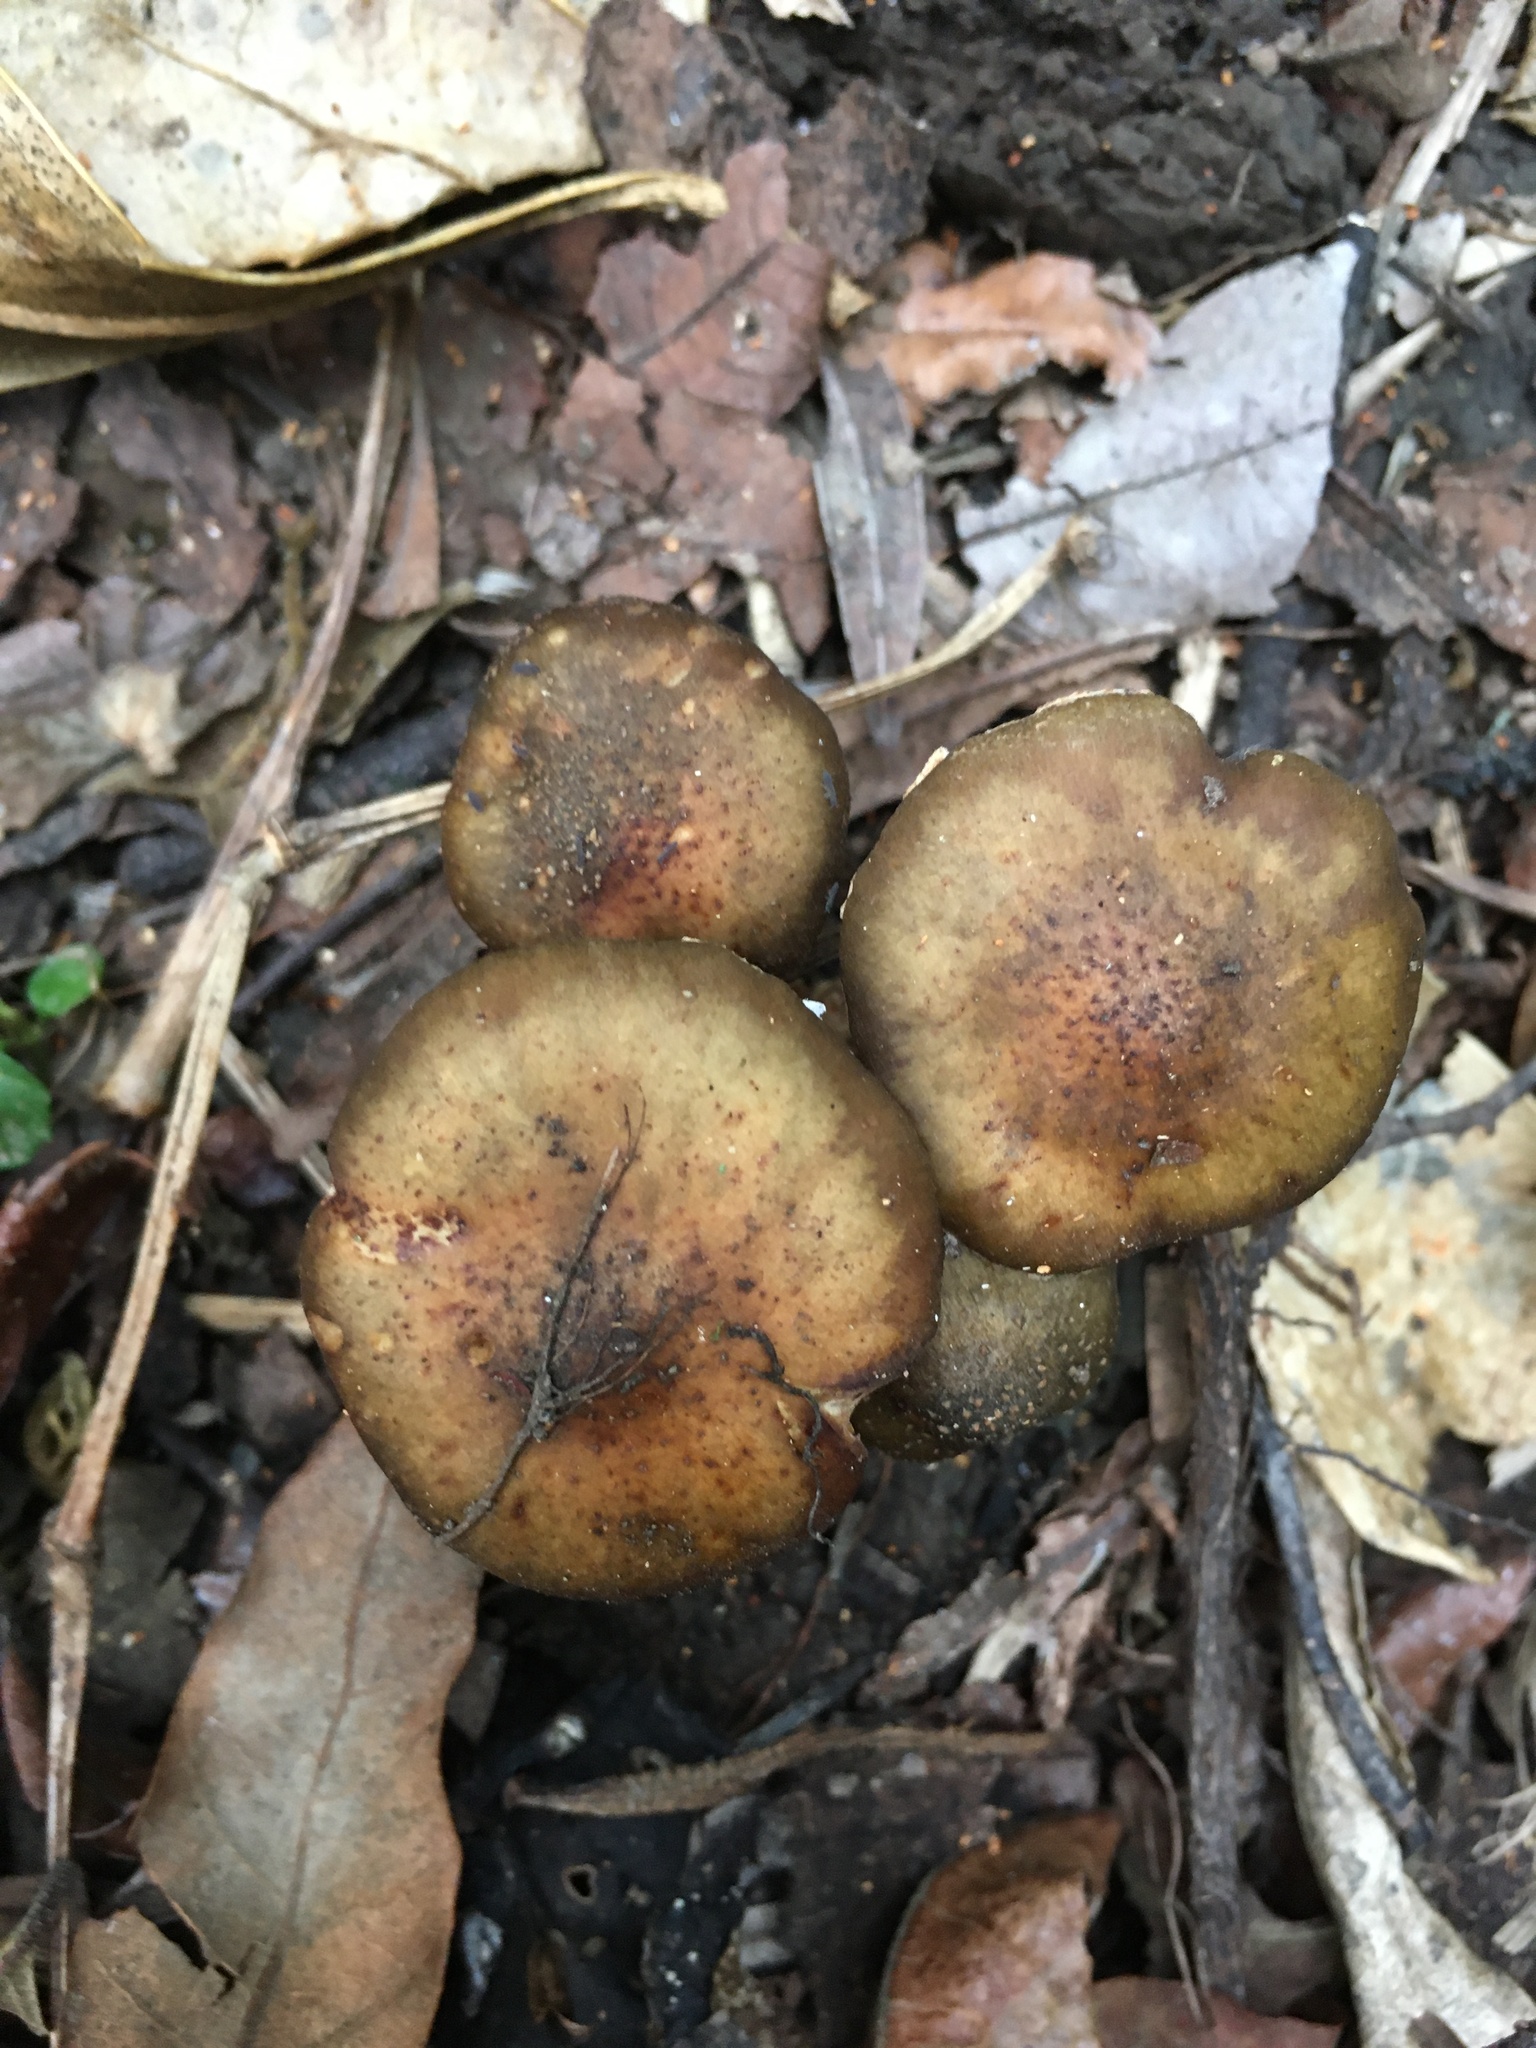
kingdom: Fungi
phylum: Basidiomycota
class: Agaricomycetes
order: Agaricales
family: Physalacriaceae
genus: Armillaria
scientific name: Armillaria novae-zelandiae
